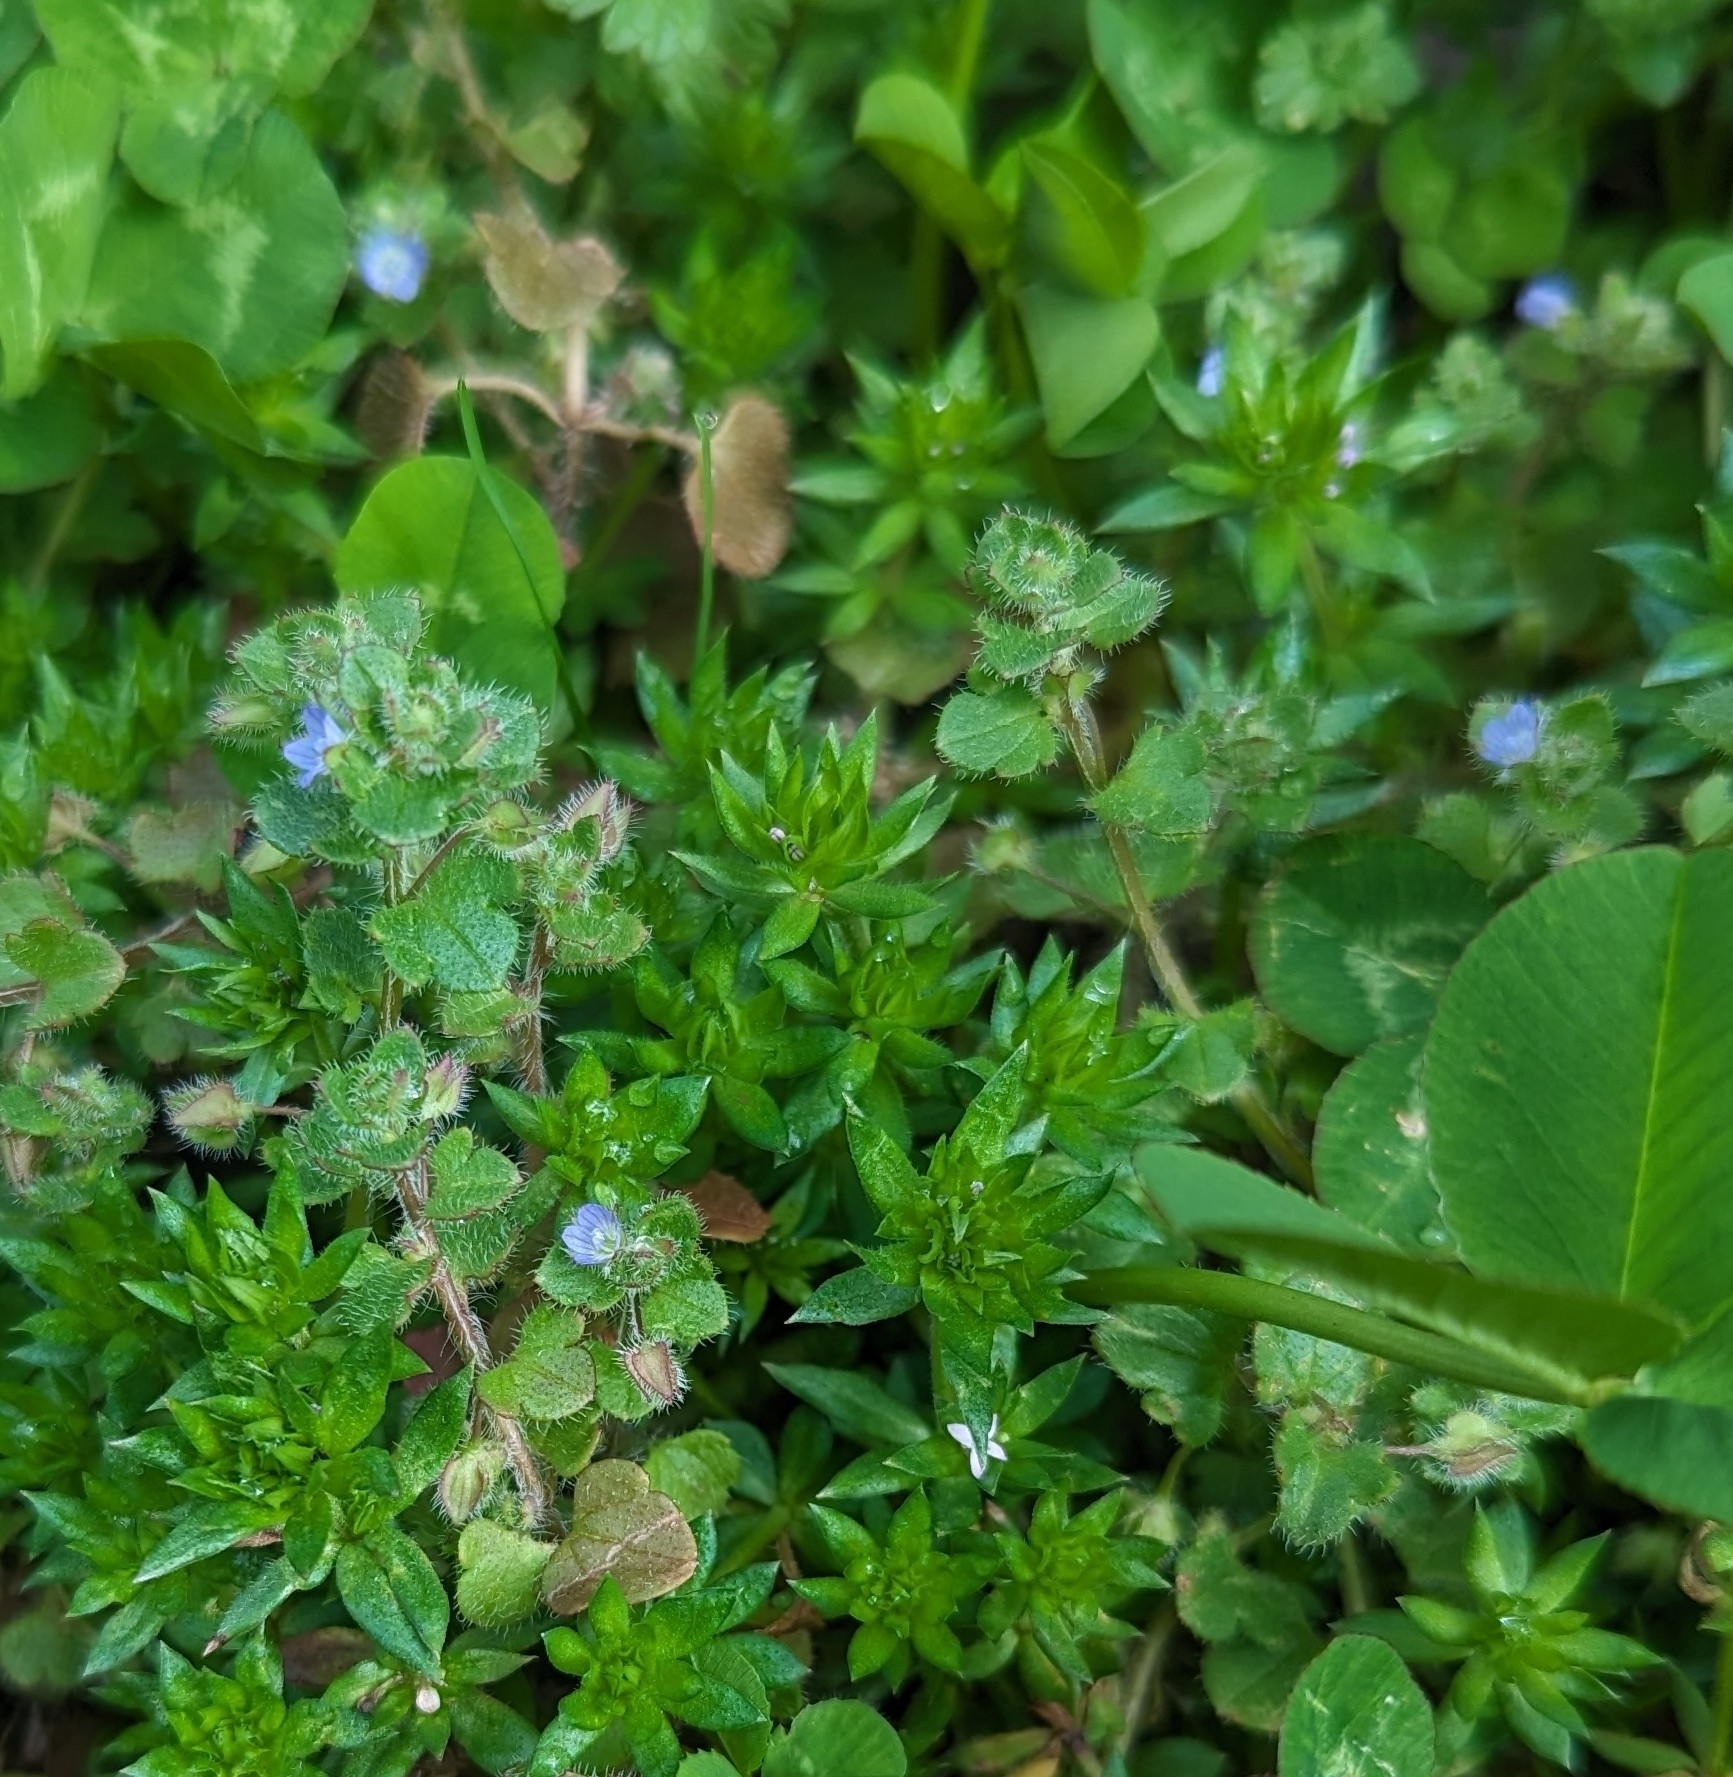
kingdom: Plantae
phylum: Tracheophyta
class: Magnoliopsida
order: Lamiales
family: Plantaginaceae
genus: Veronica
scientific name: Veronica hederifolia
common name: Ivy-leaved speedwell
